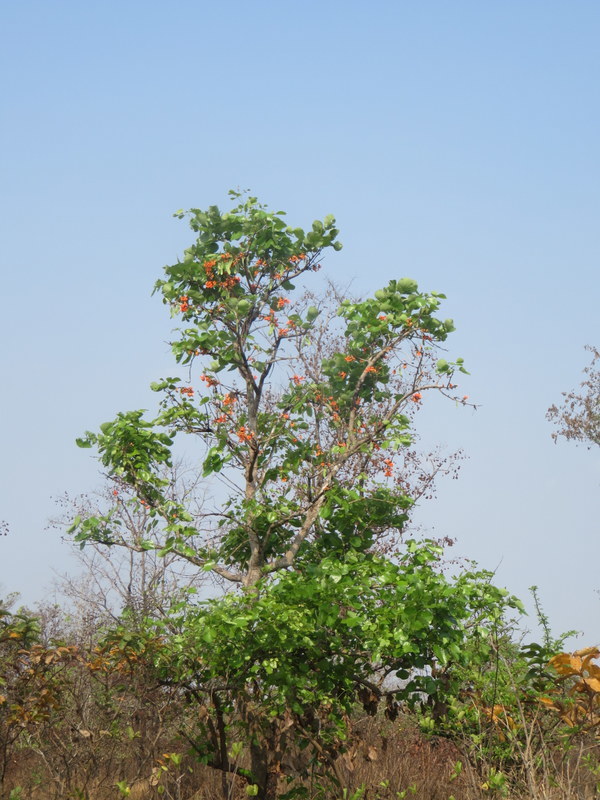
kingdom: Plantae
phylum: Tracheophyta
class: Magnoliopsida
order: Malvales
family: Dipterocarpaceae
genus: Dipterocarpus
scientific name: Dipterocarpus intricatus
